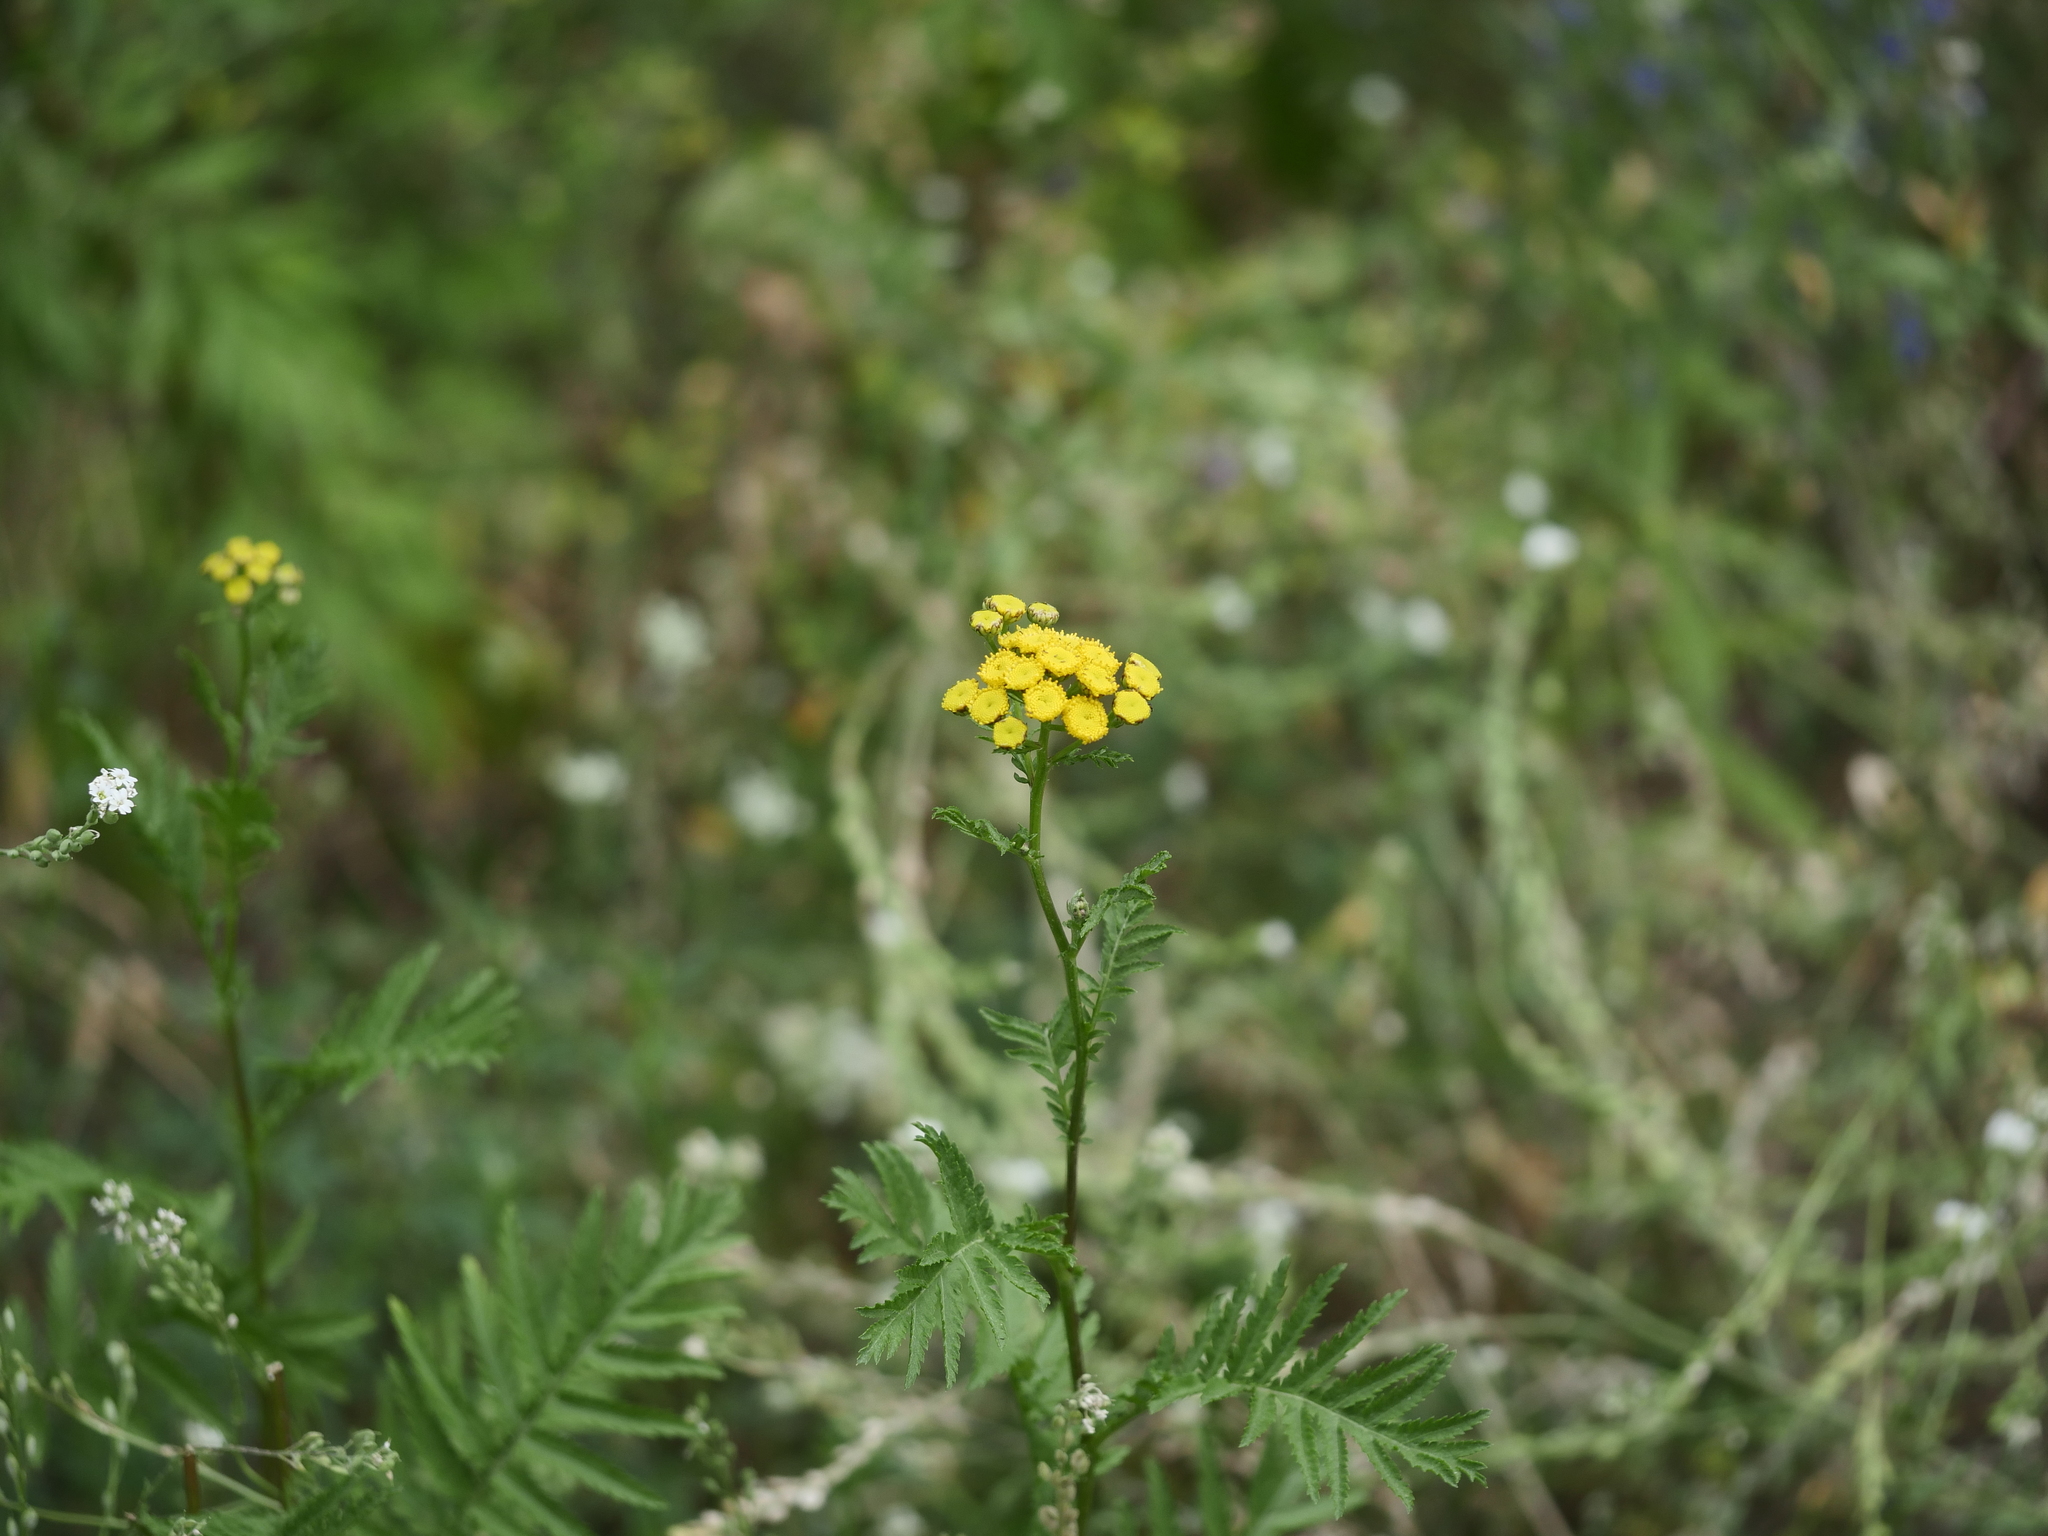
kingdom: Plantae
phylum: Tracheophyta
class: Magnoliopsida
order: Asterales
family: Asteraceae
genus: Tanacetum
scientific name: Tanacetum vulgare
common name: Common tansy
